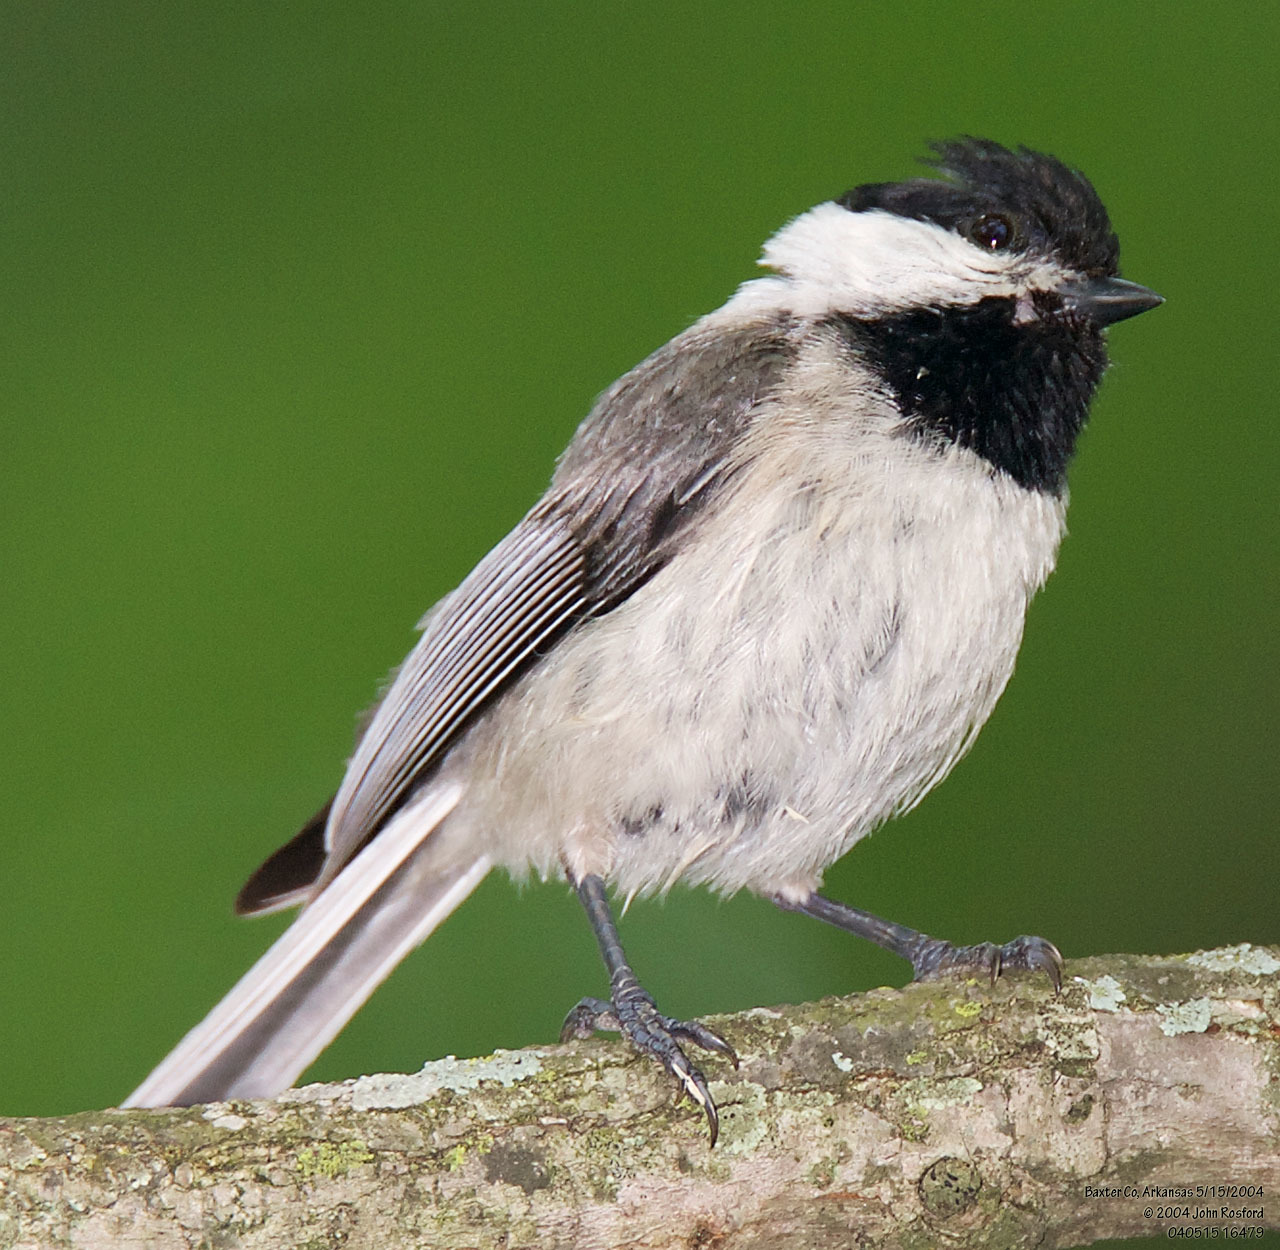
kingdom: Animalia
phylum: Chordata
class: Aves
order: Passeriformes
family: Paridae
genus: Poecile
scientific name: Poecile carolinensis
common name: Carolina chickadee
